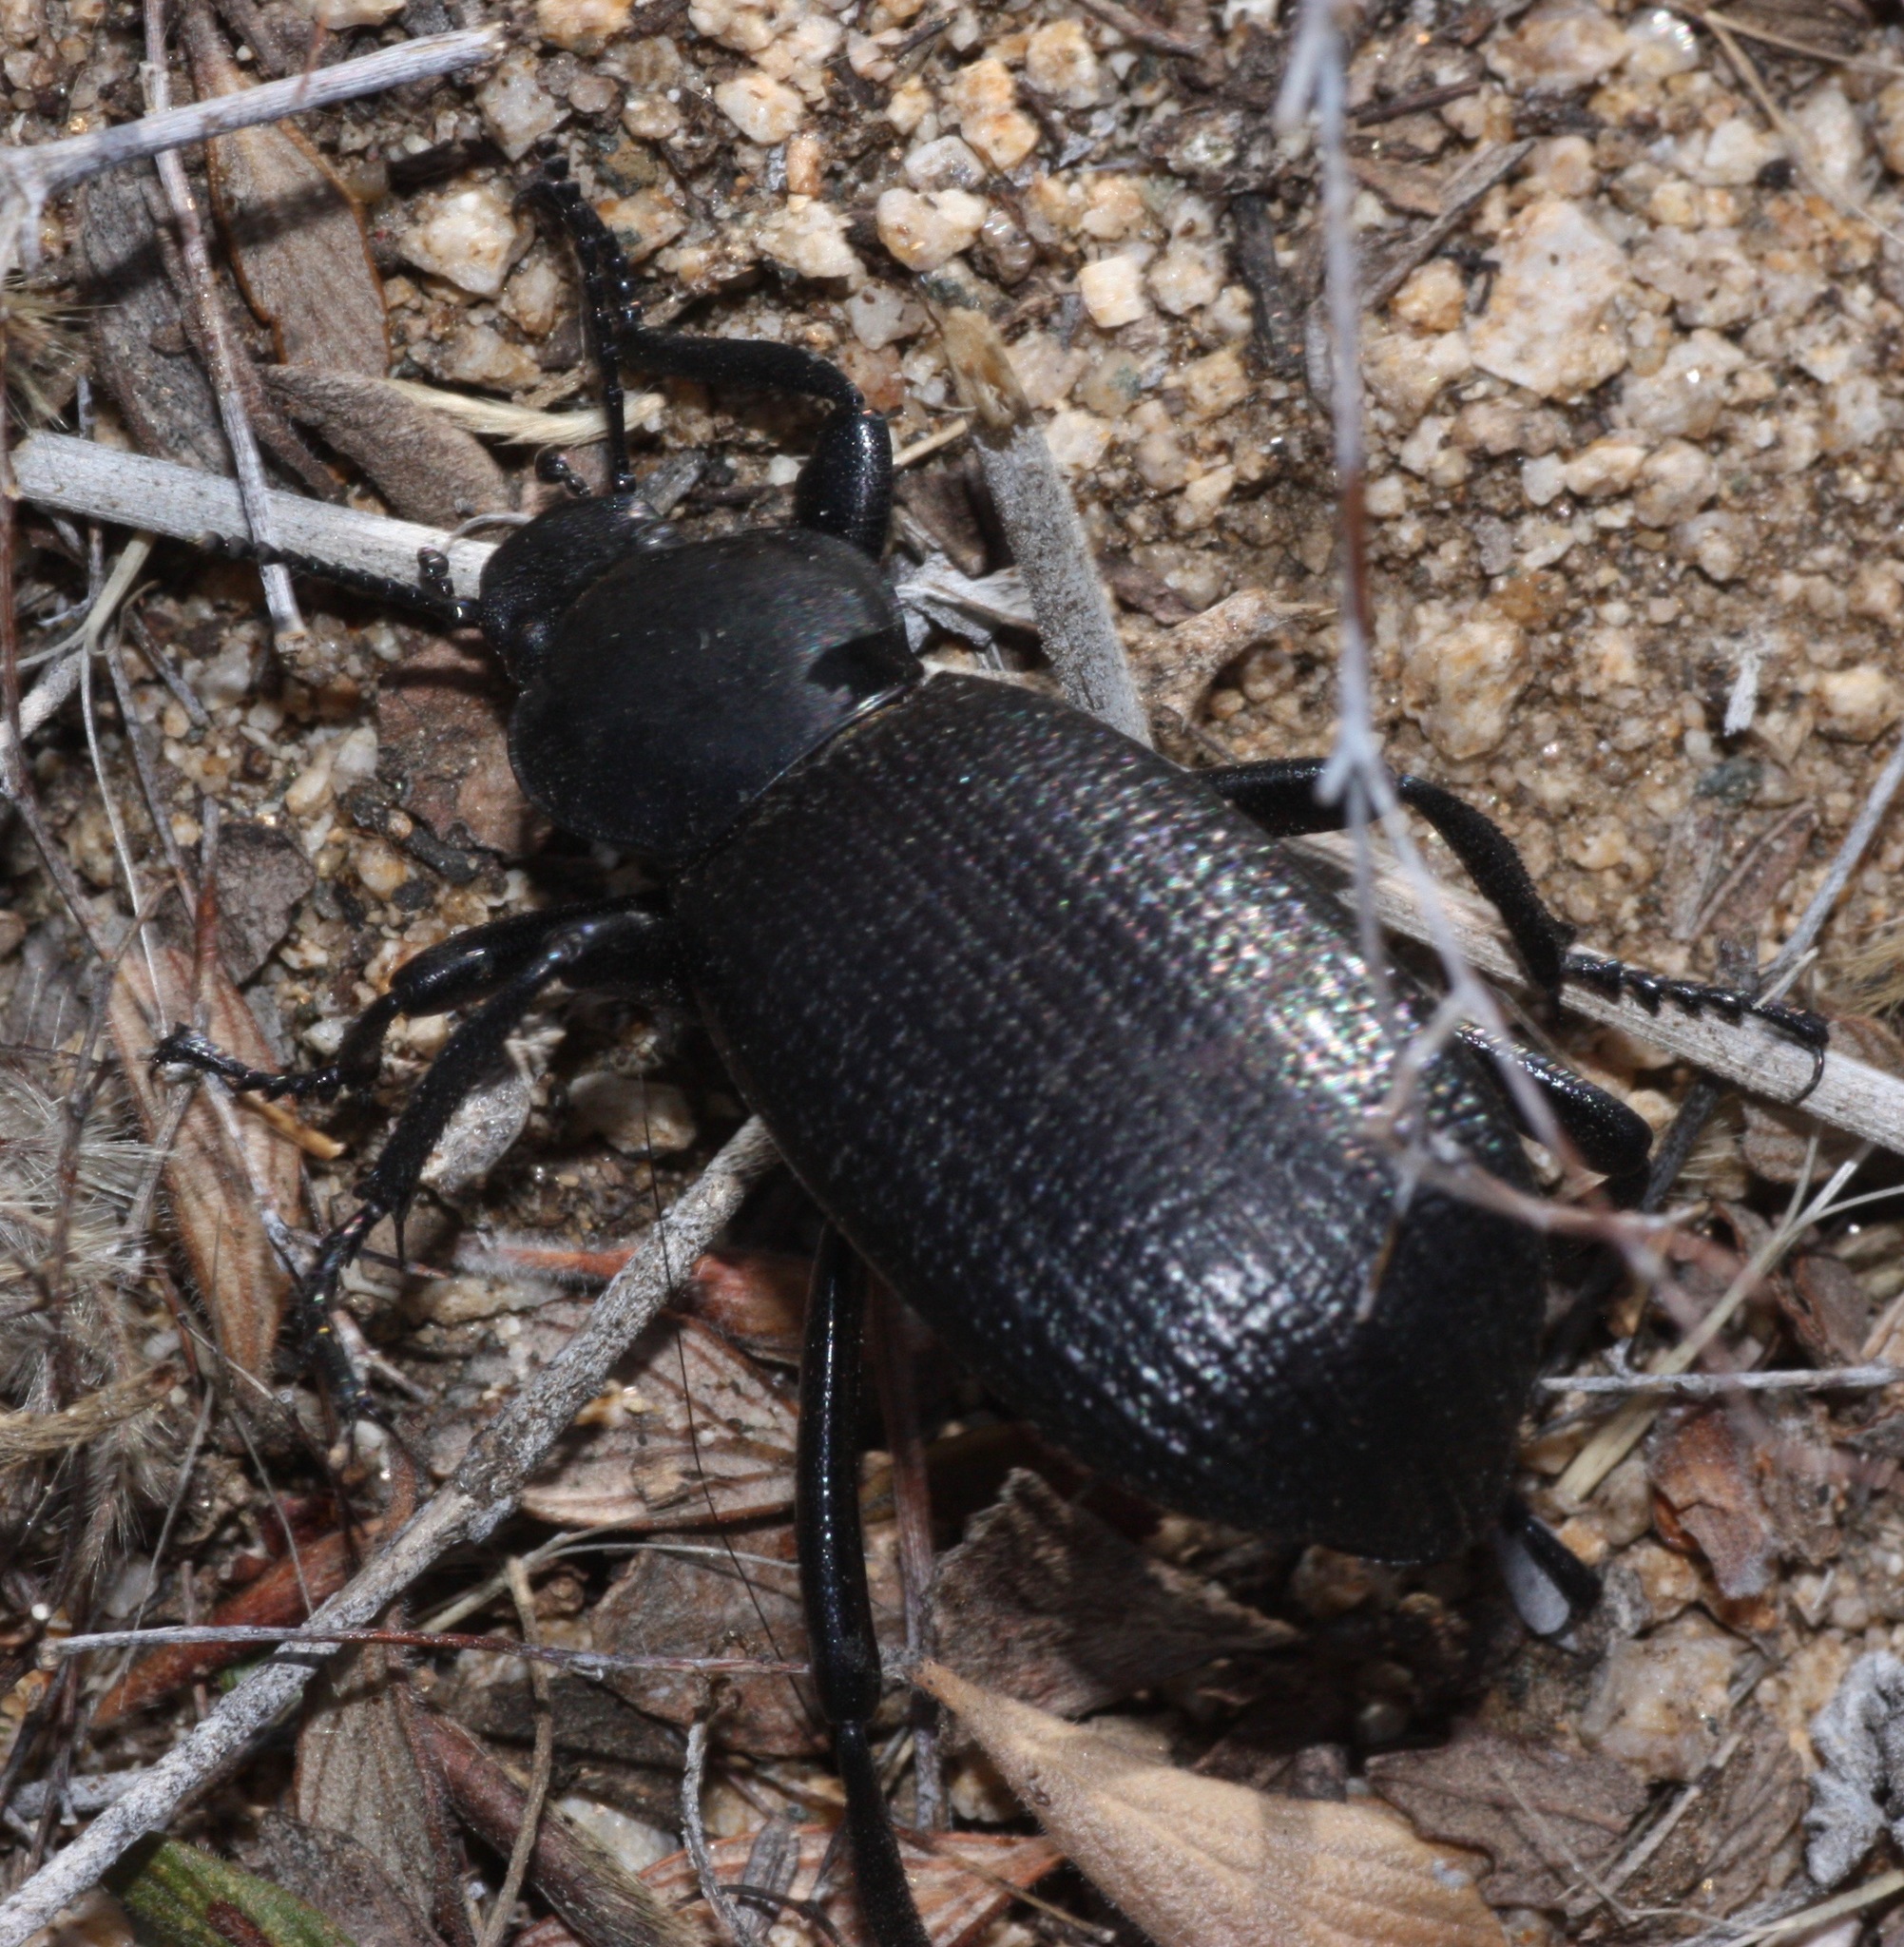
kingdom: Animalia
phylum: Arthropoda
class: Insecta
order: Coleoptera
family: Tenebrionidae
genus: Eleodes
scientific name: Eleodes obscura
